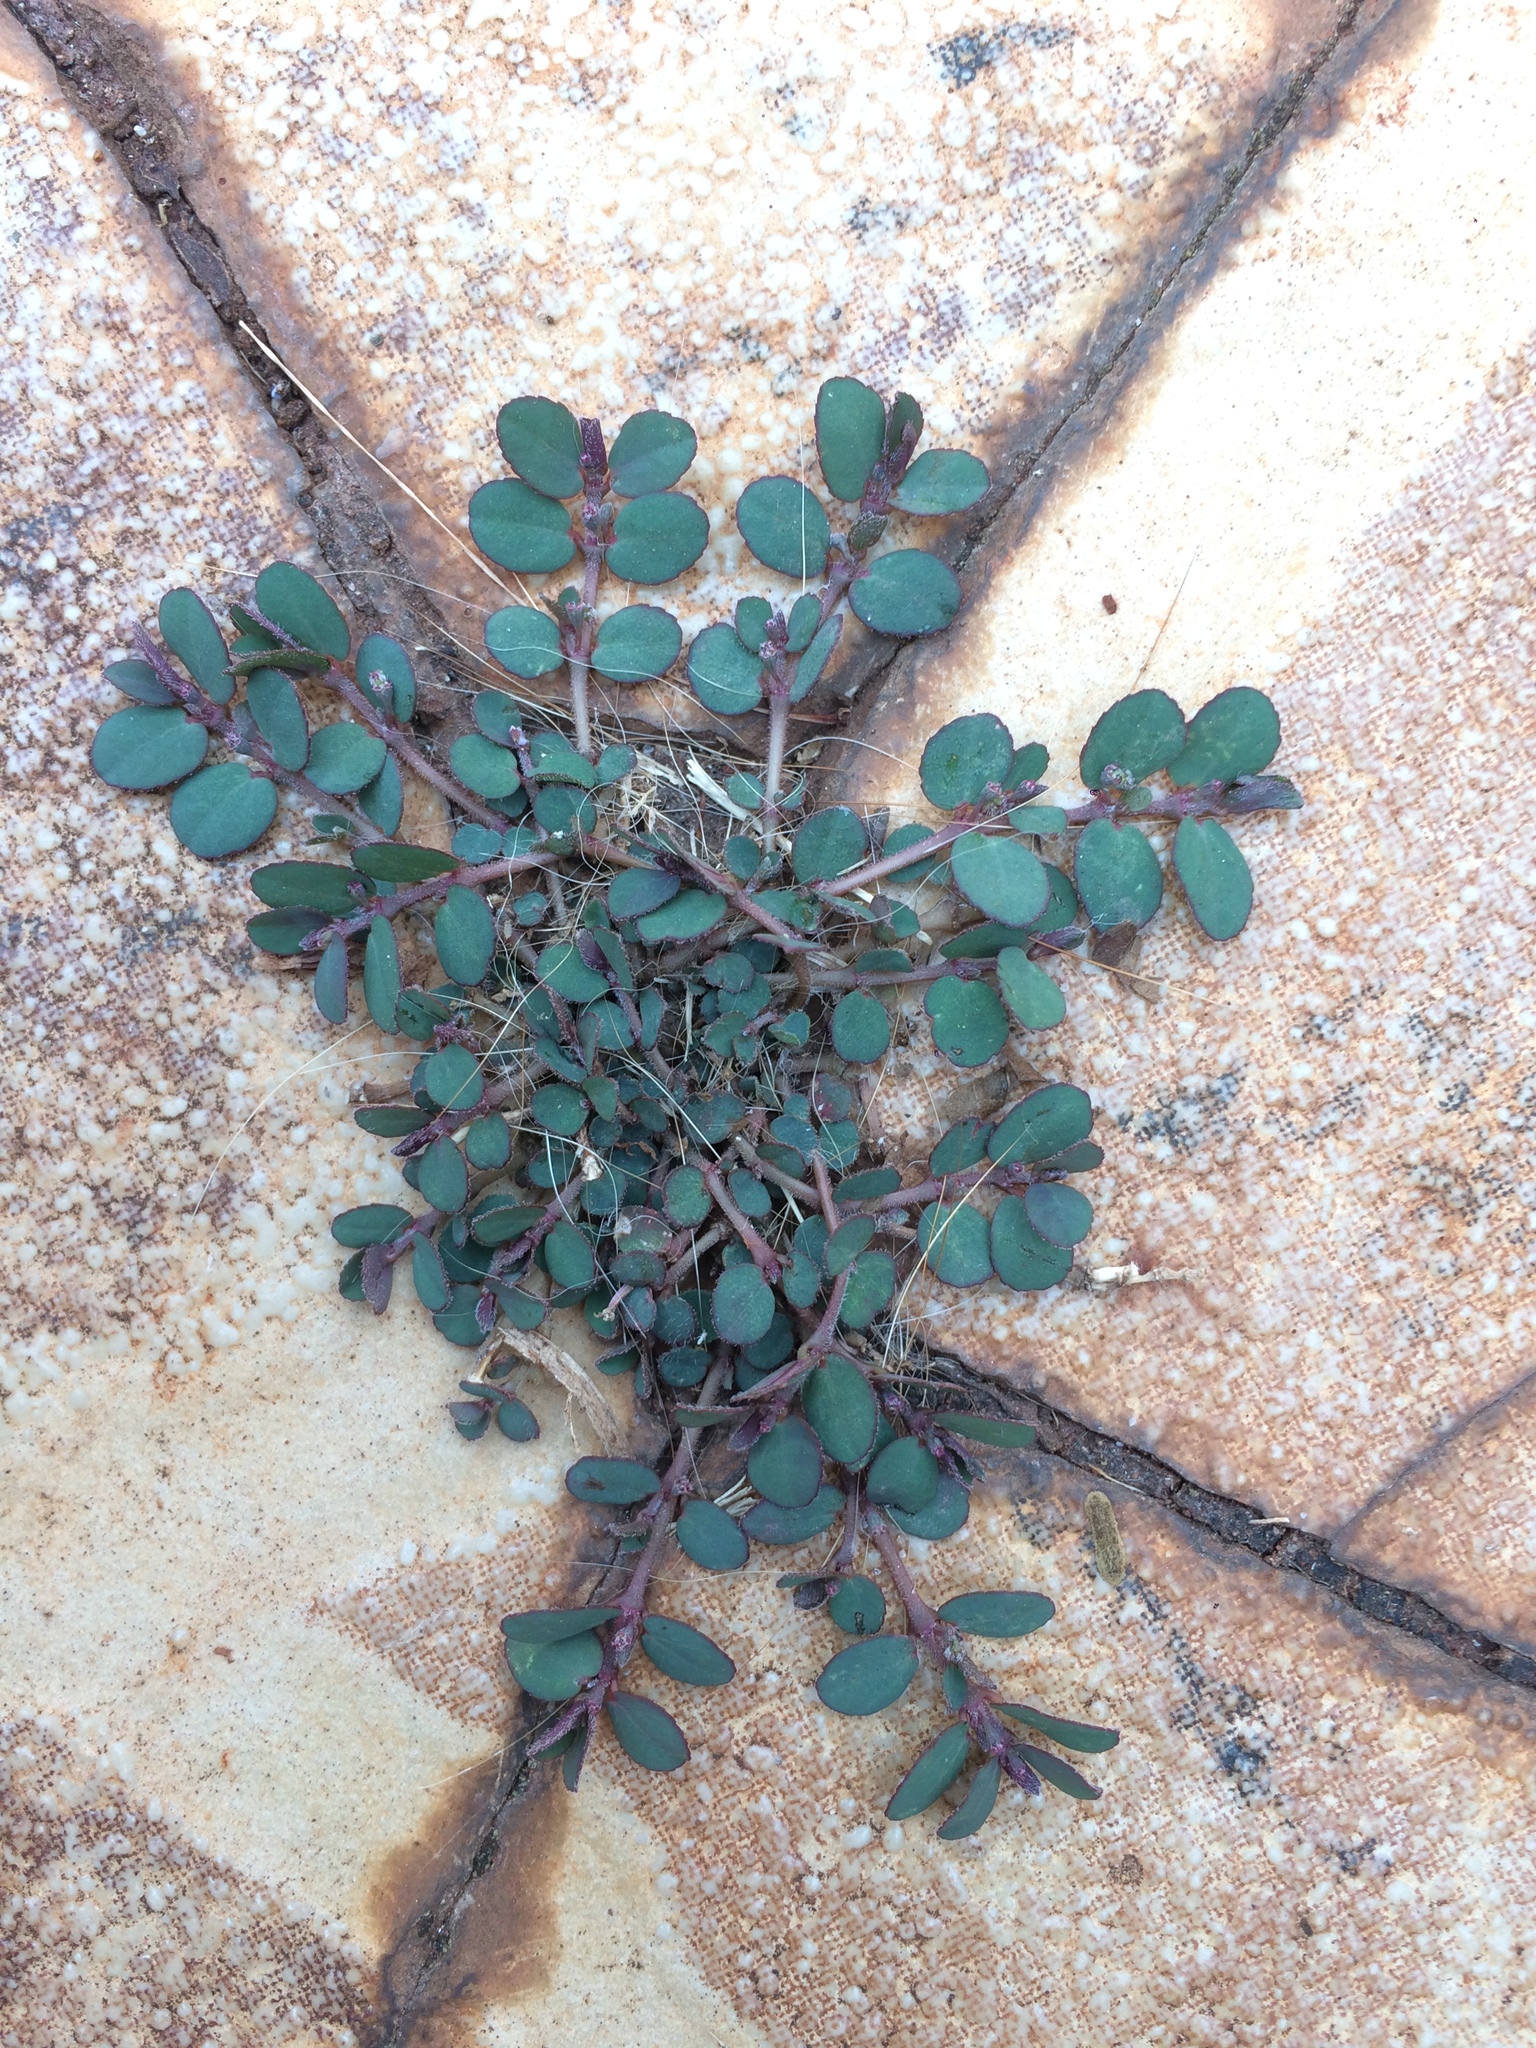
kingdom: Plantae
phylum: Tracheophyta
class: Magnoliopsida
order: Malpighiales
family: Euphorbiaceae
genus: Euphorbia
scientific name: Euphorbia prostrata
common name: Prostrate sandmat
